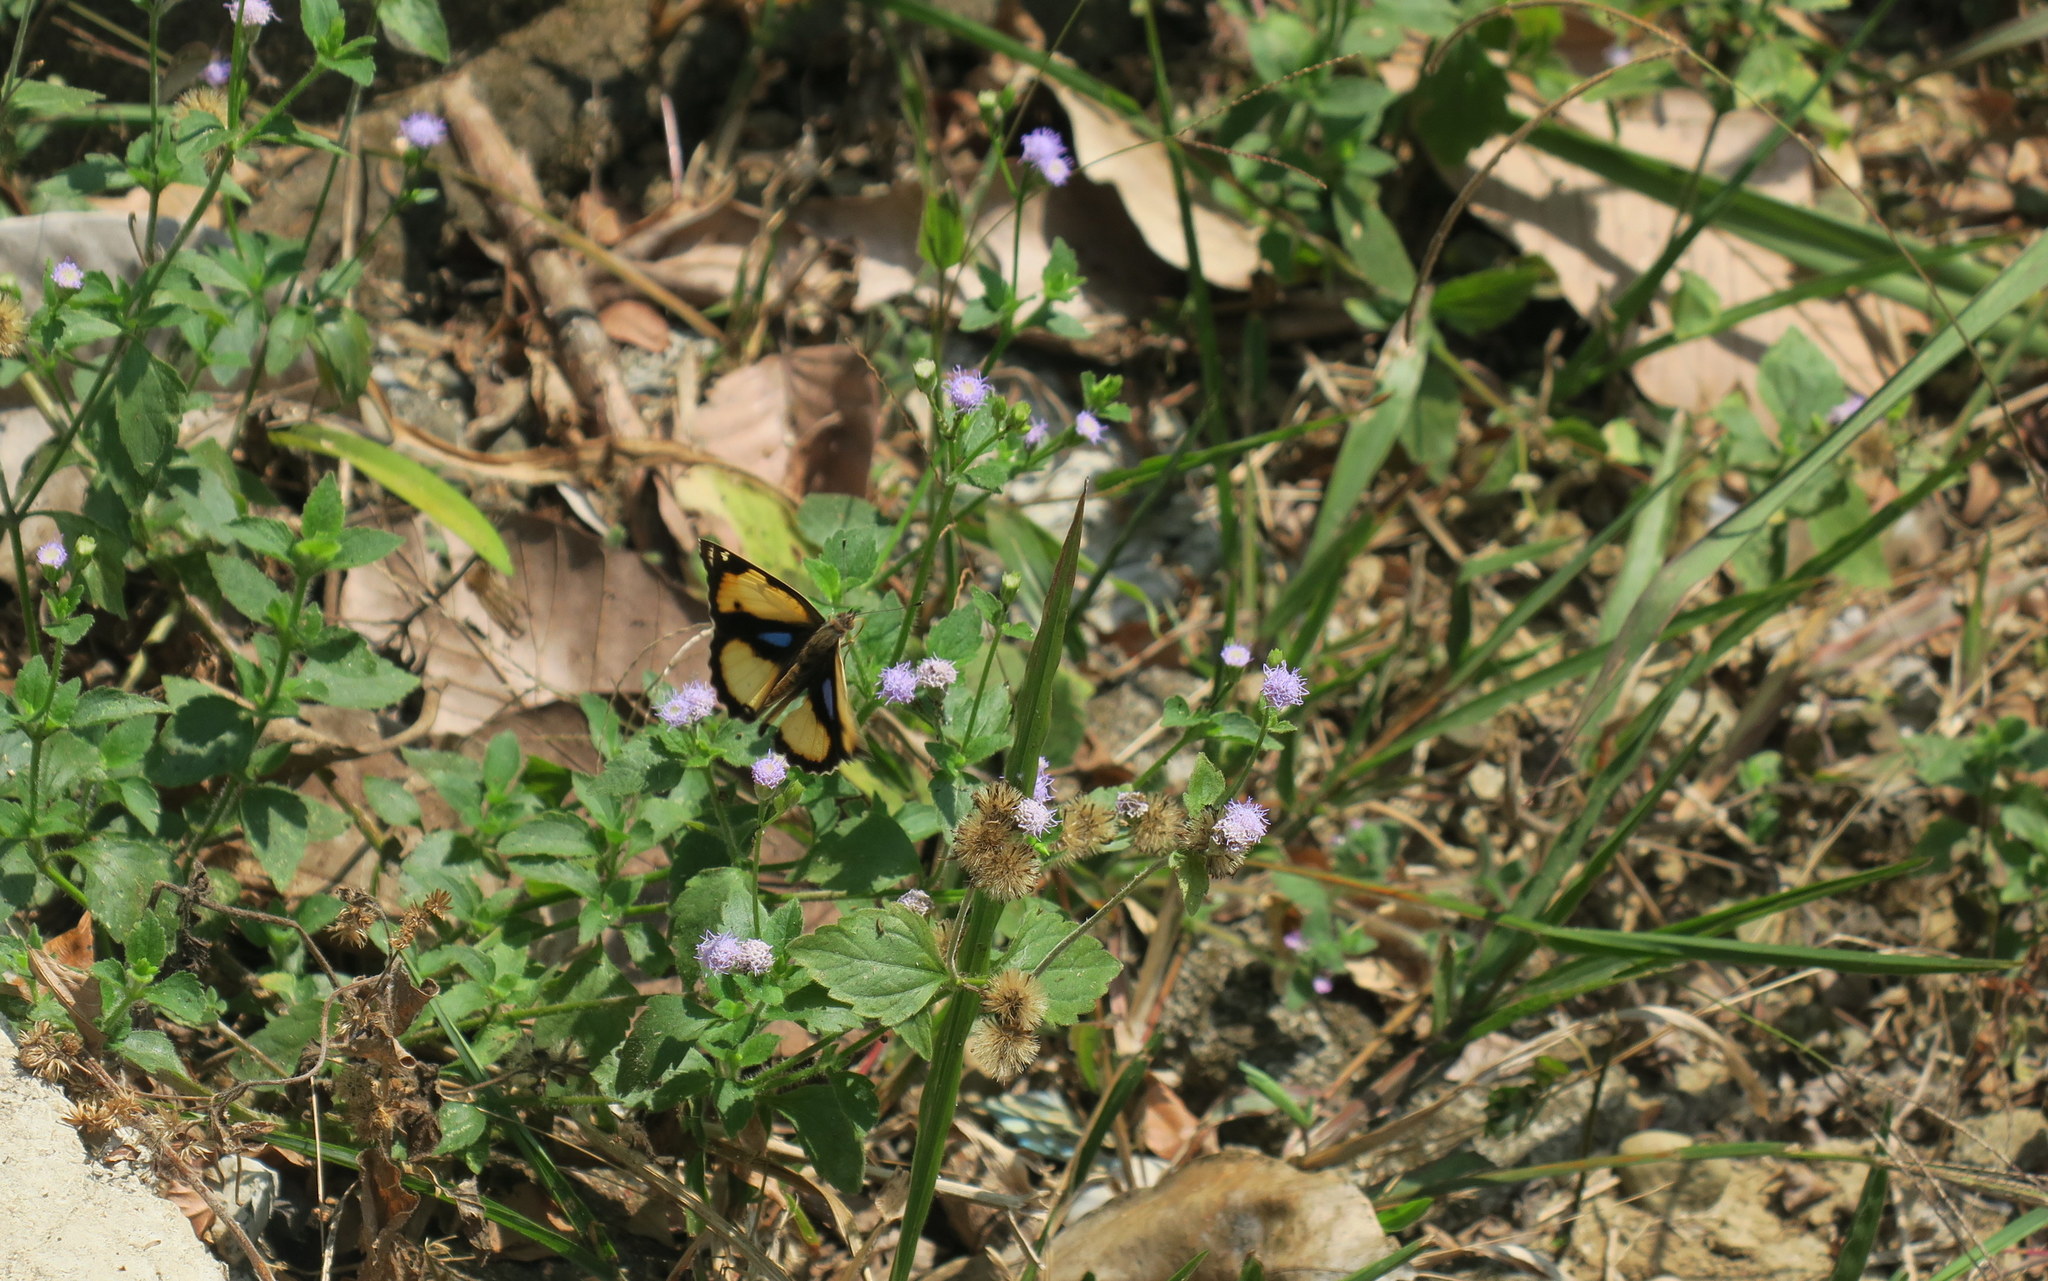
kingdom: Animalia
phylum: Arthropoda
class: Insecta
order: Lepidoptera
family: Nymphalidae
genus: Junonia
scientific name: Junonia hierta
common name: Yellow pansy
